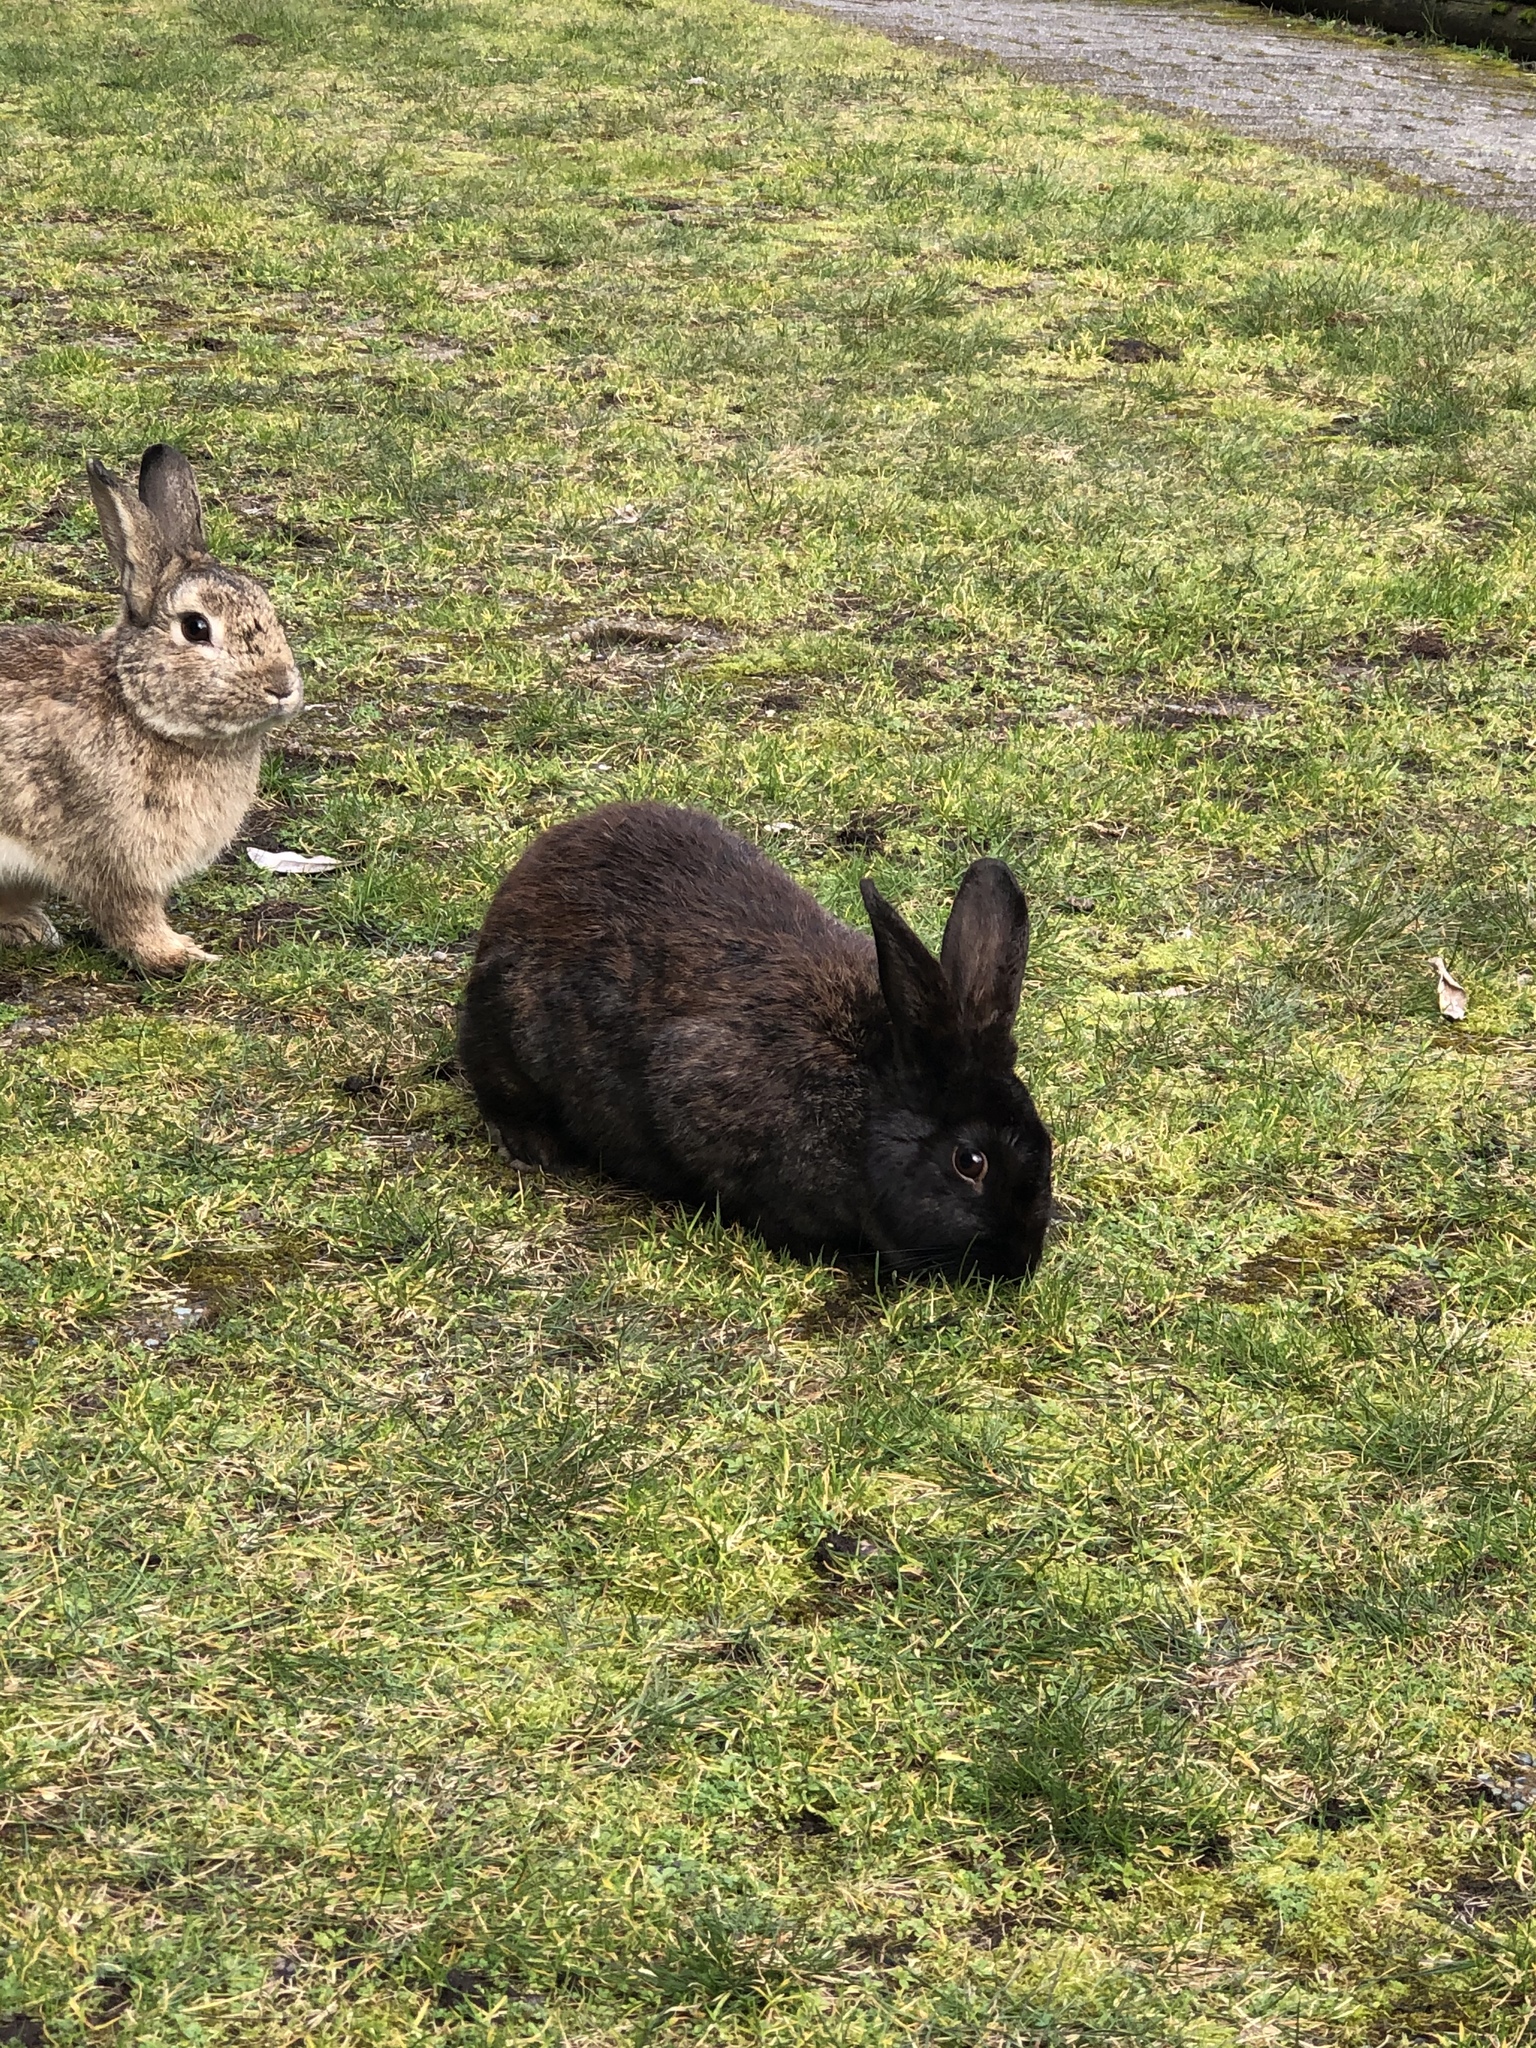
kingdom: Animalia
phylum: Chordata
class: Mammalia
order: Lagomorpha
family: Leporidae
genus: Oryctolagus
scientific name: Oryctolagus cuniculus
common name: European rabbit
